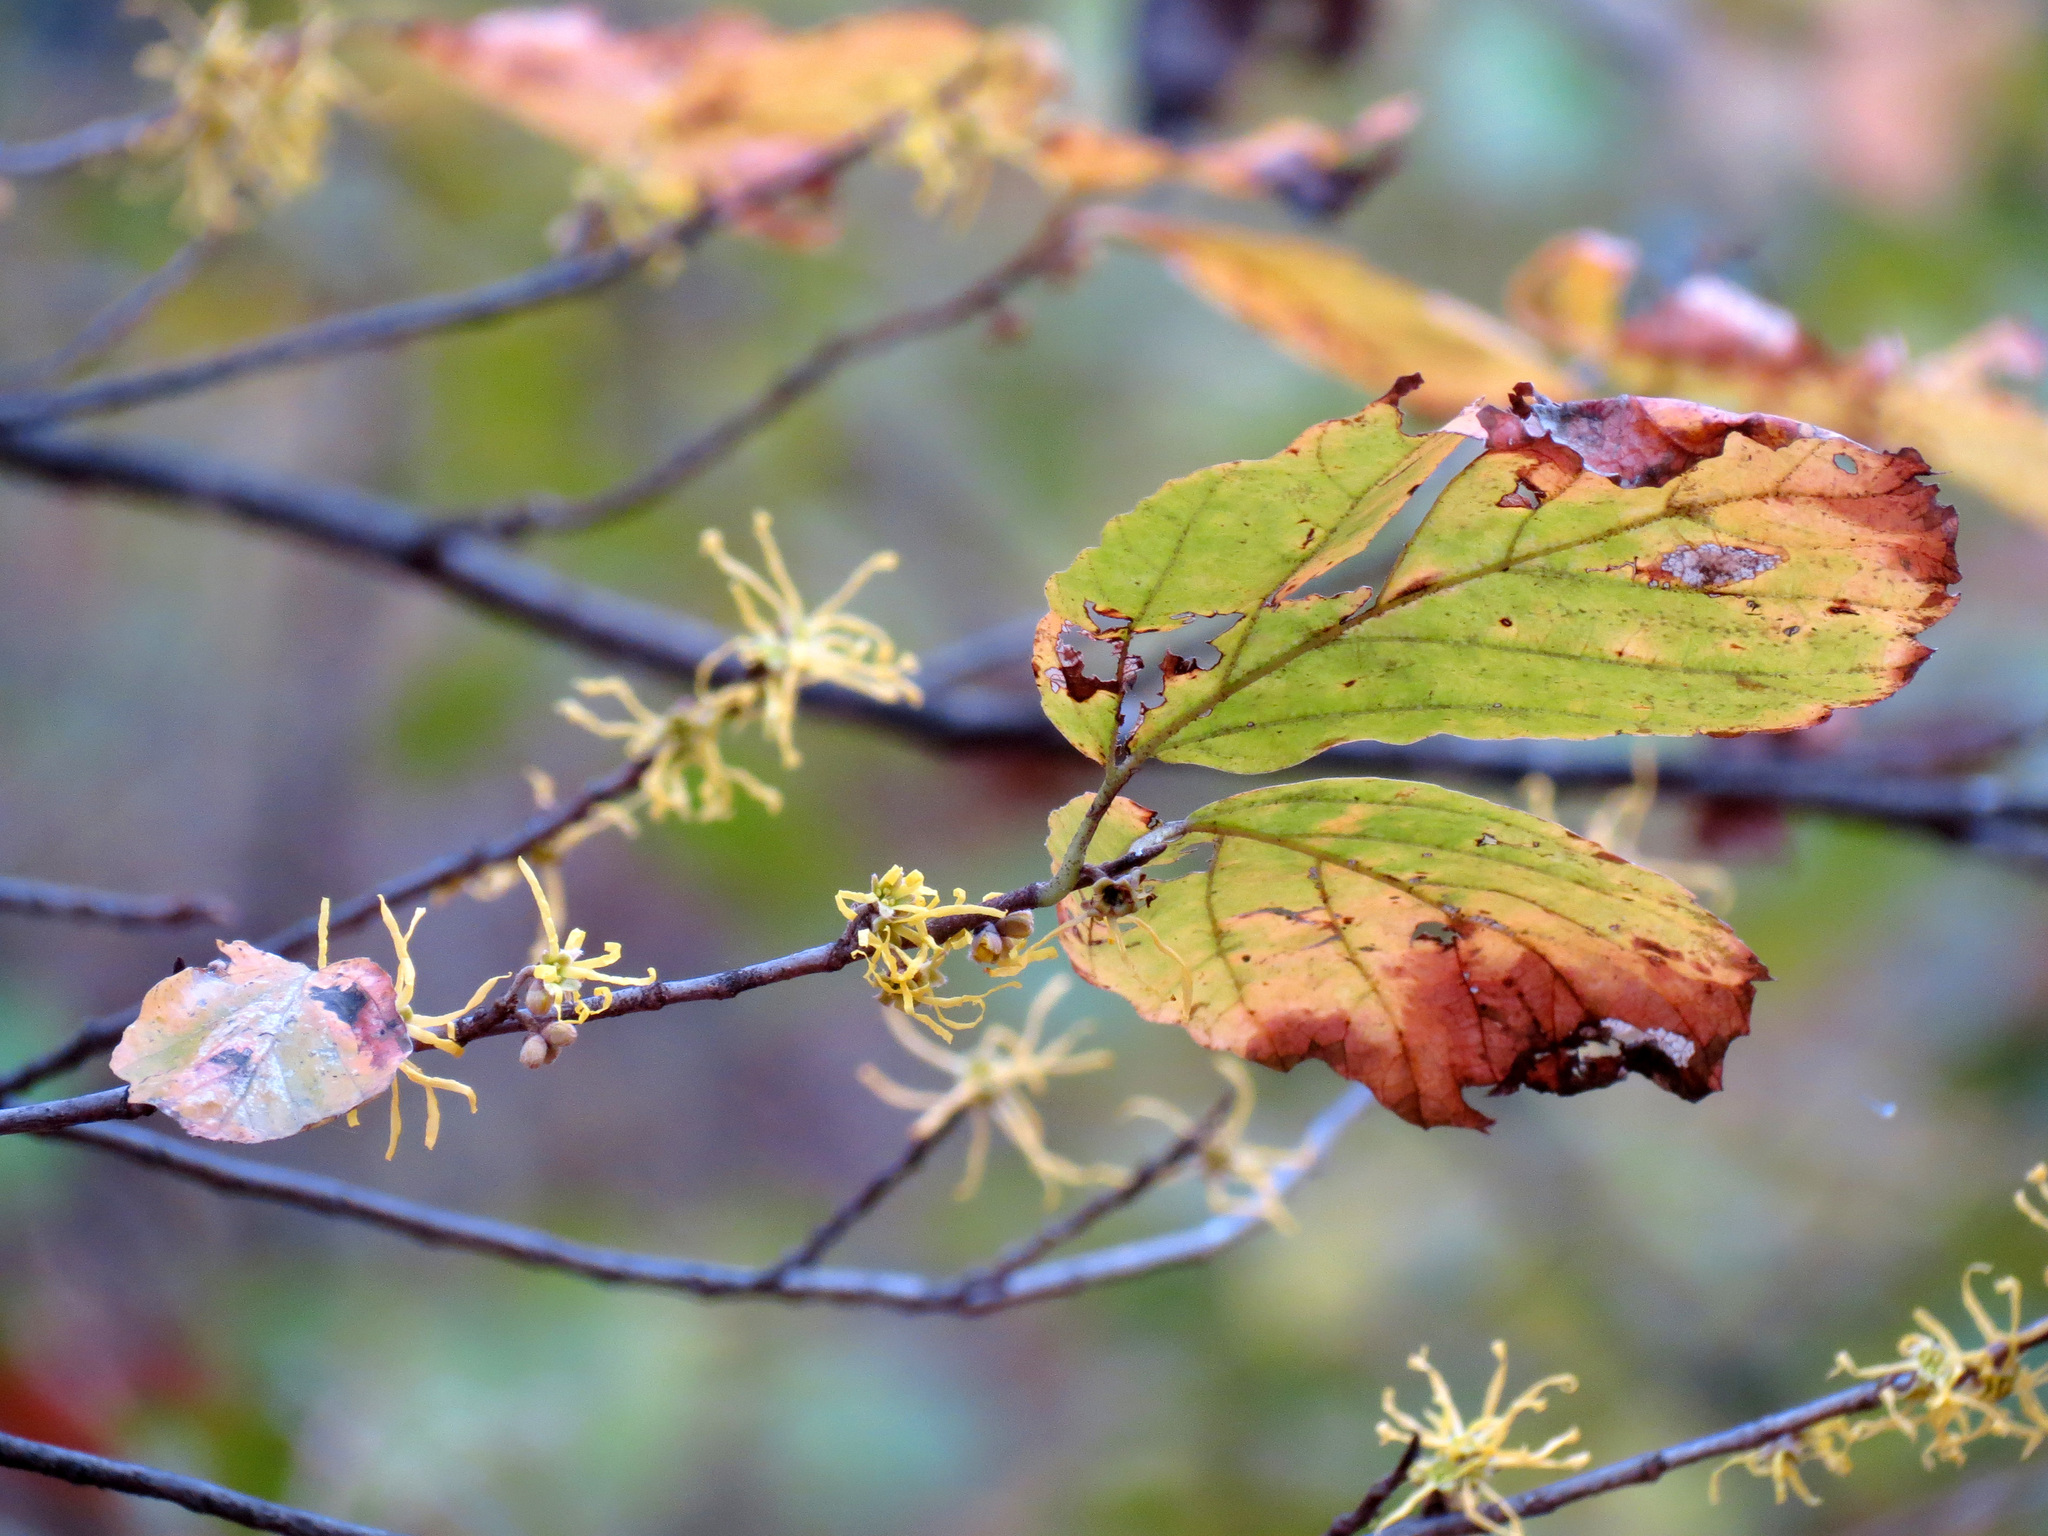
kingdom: Plantae
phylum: Tracheophyta
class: Magnoliopsida
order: Saxifragales
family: Hamamelidaceae
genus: Hamamelis
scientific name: Hamamelis virginiana
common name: Witch-hazel
